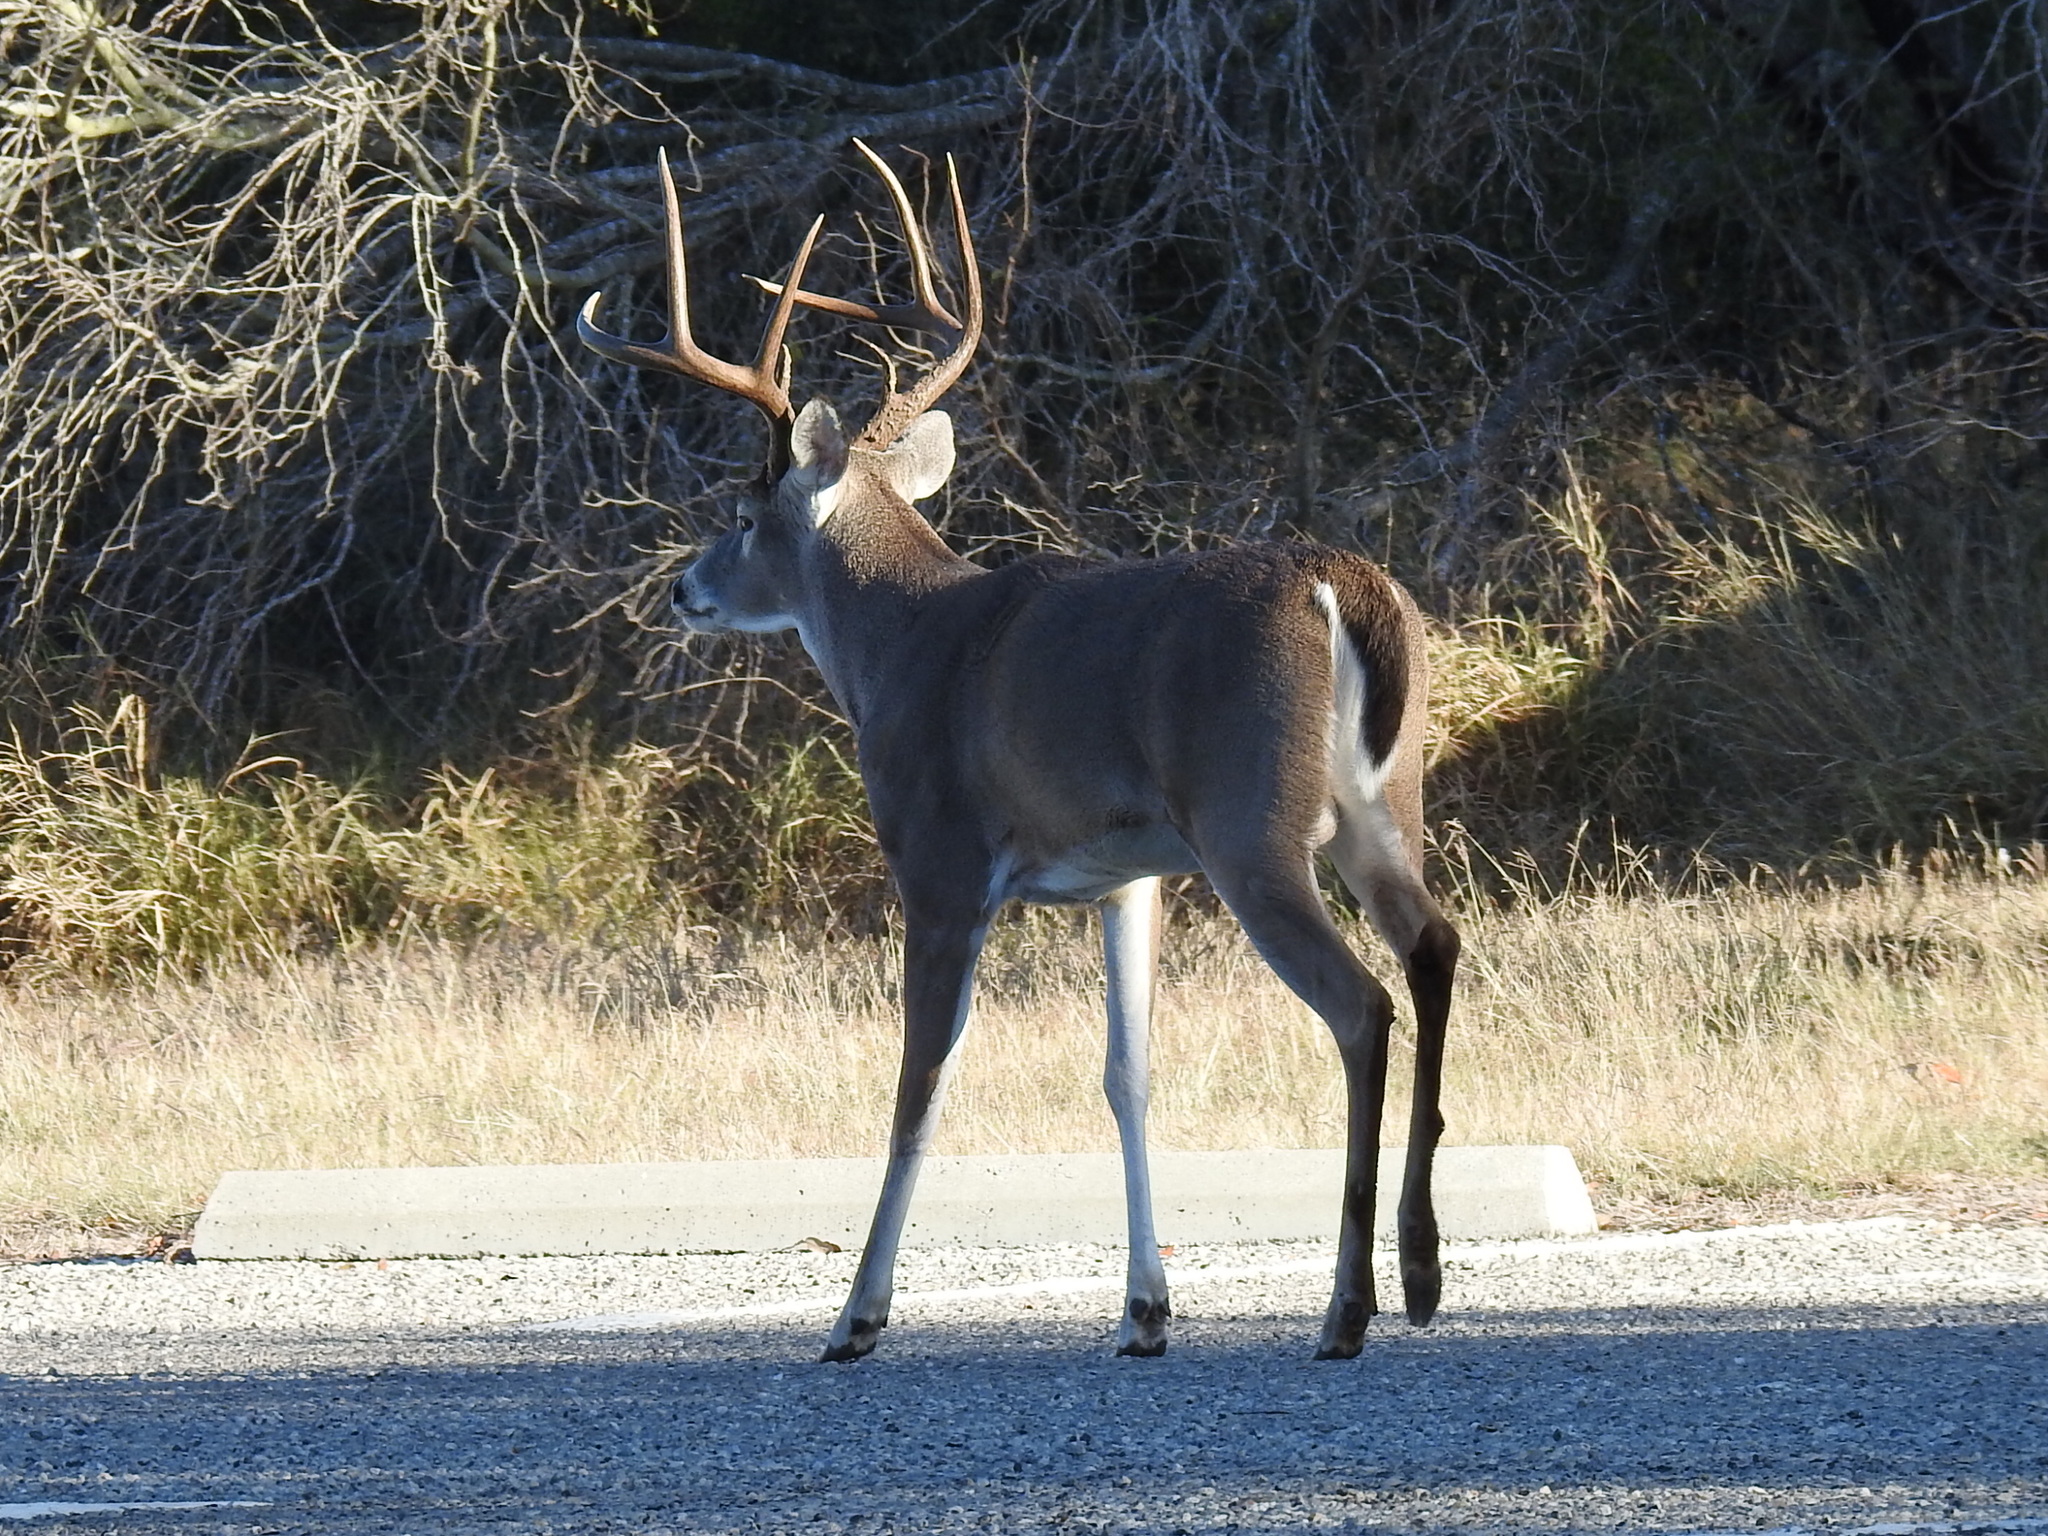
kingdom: Animalia
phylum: Chordata
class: Mammalia
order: Artiodactyla
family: Cervidae
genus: Odocoileus
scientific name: Odocoileus virginianus
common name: White-tailed deer
